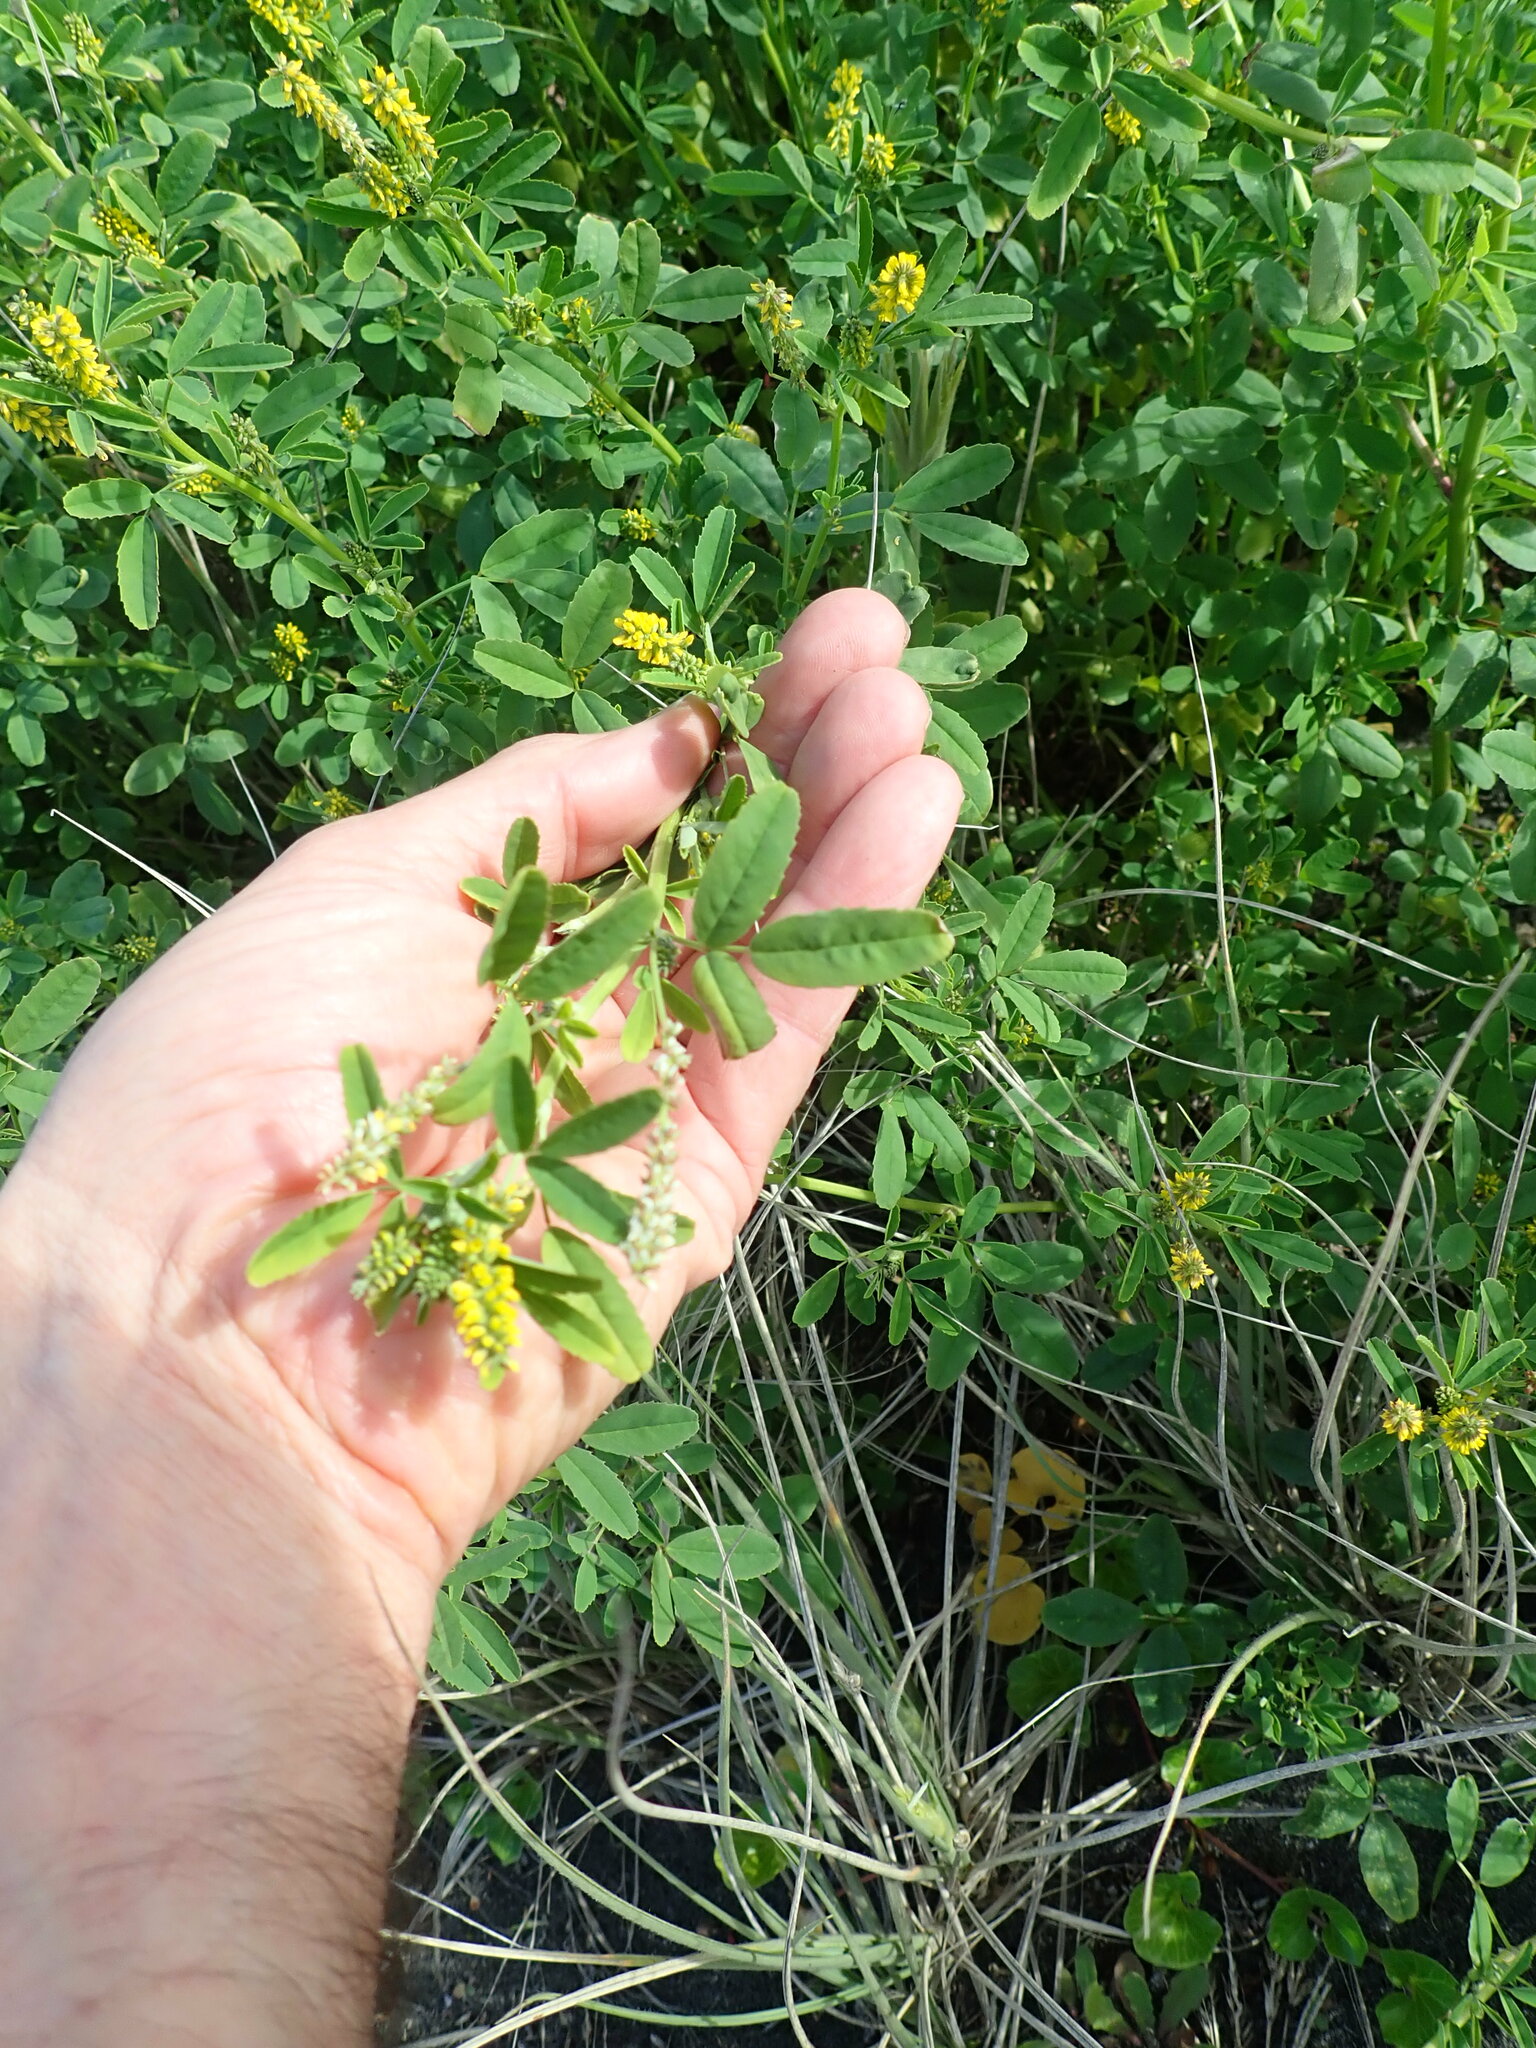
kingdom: Plantae
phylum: Tracheophyta
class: Magnoliopsida
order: Fabales
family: Fabaceae
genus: Melilotus
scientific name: Melilotus indicus
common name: Small melilot
